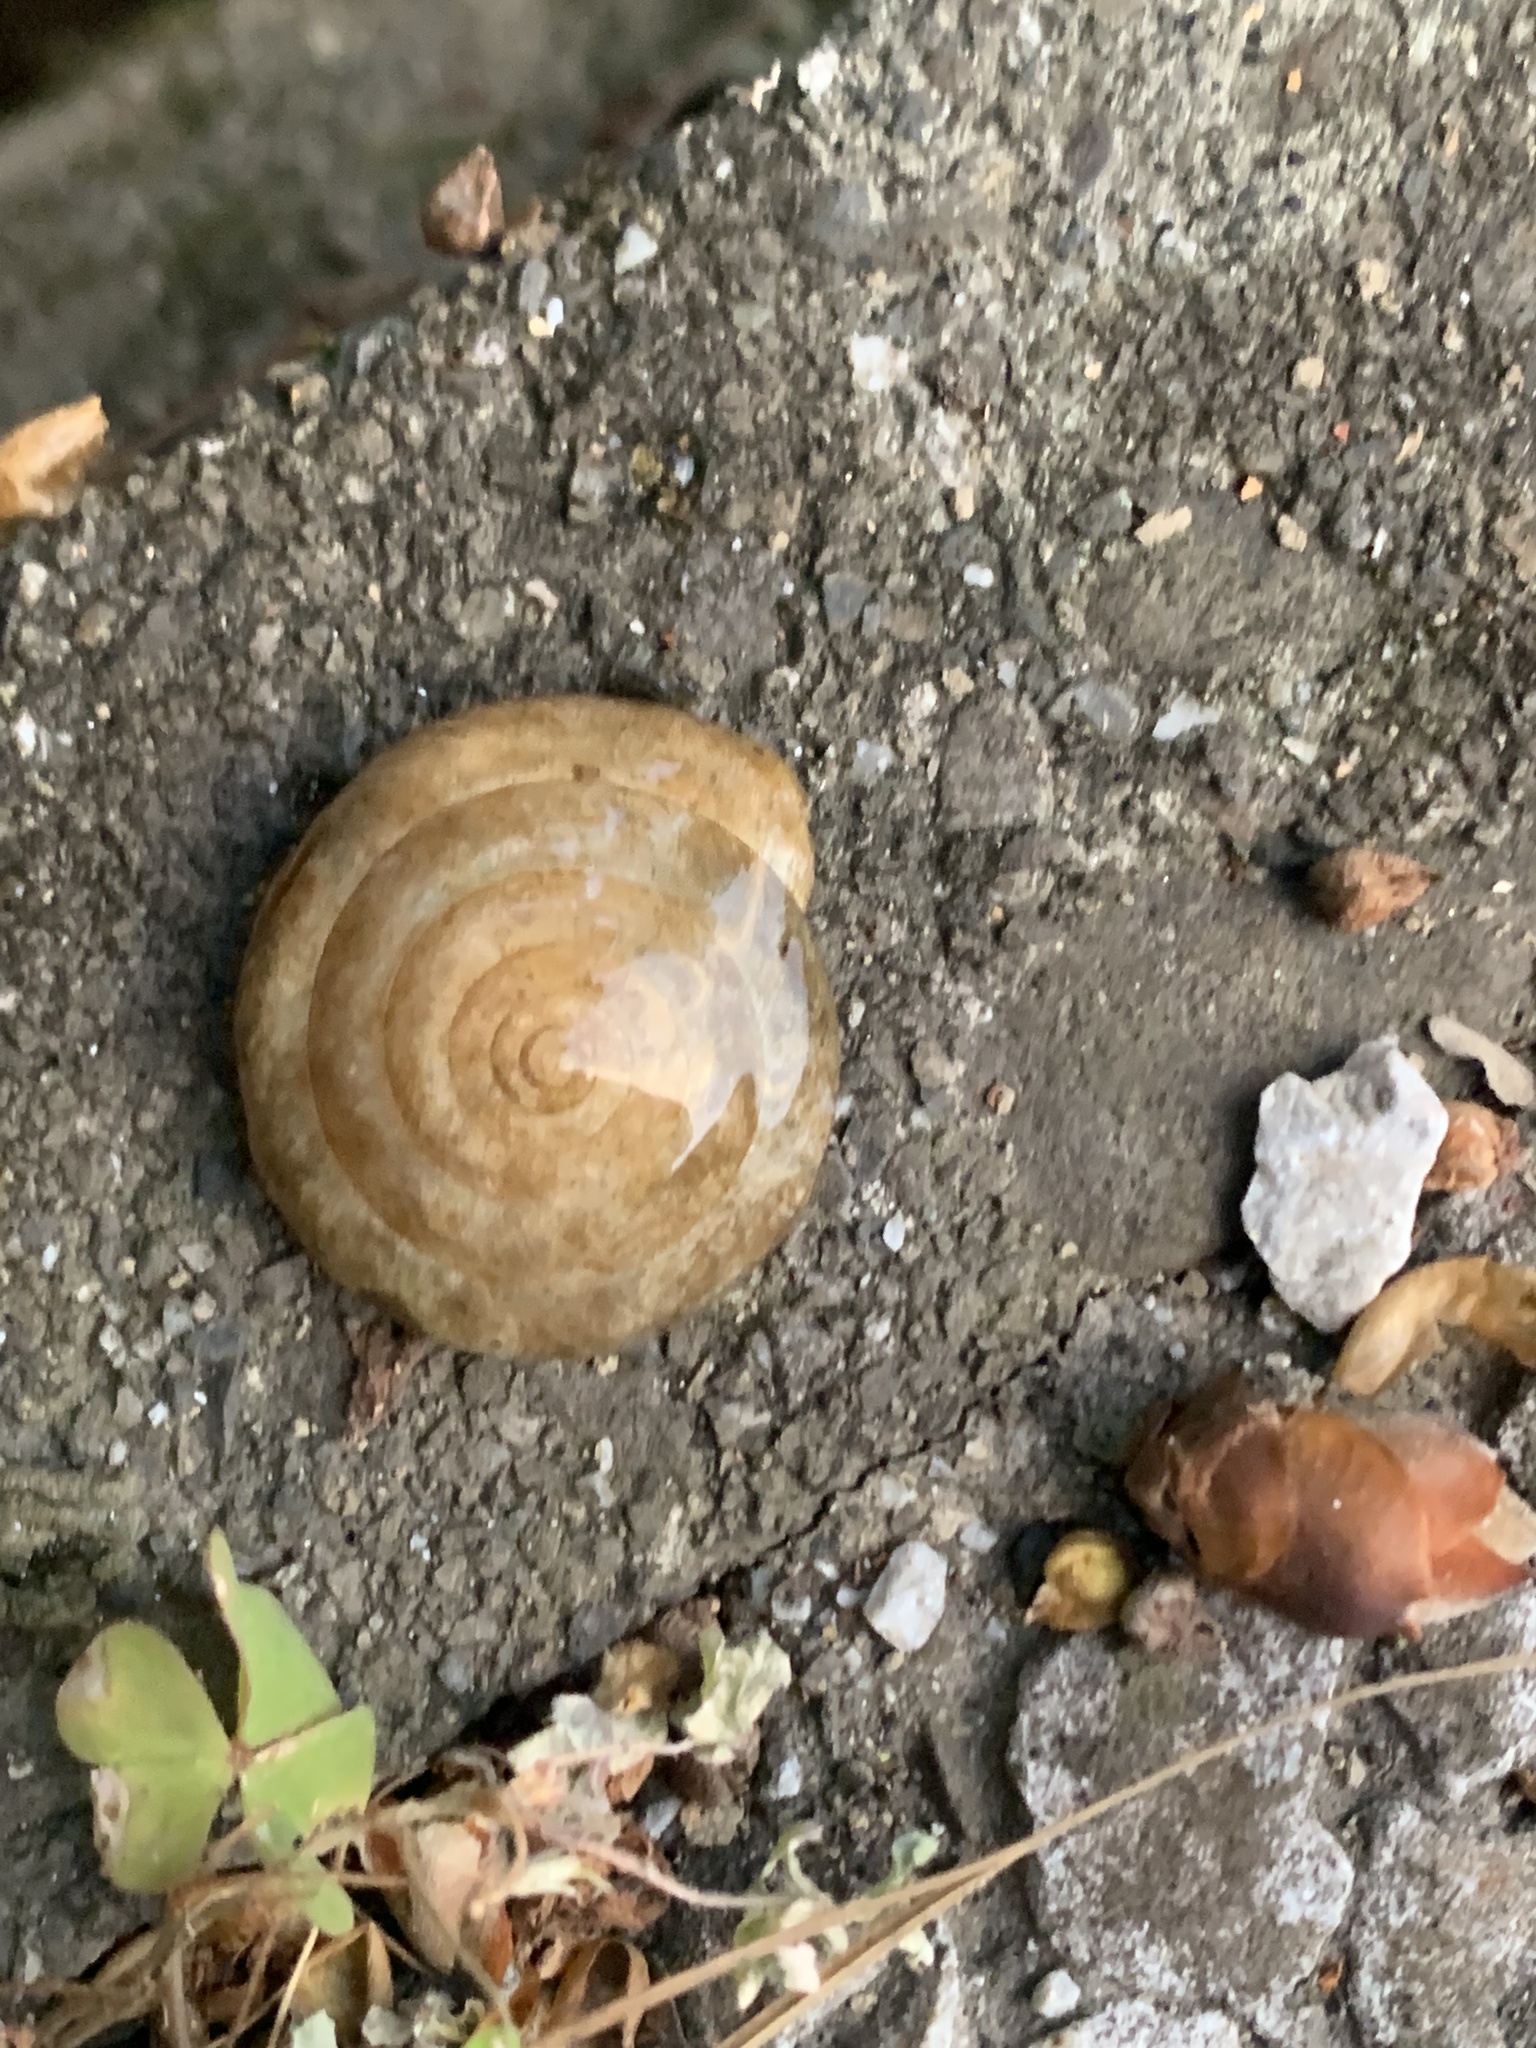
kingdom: Animalia
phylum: Mollusca
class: Gastropoda
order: Stylommatophora
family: Camaenidae
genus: Plectotropis
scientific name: Plectotropis vulgivaga
